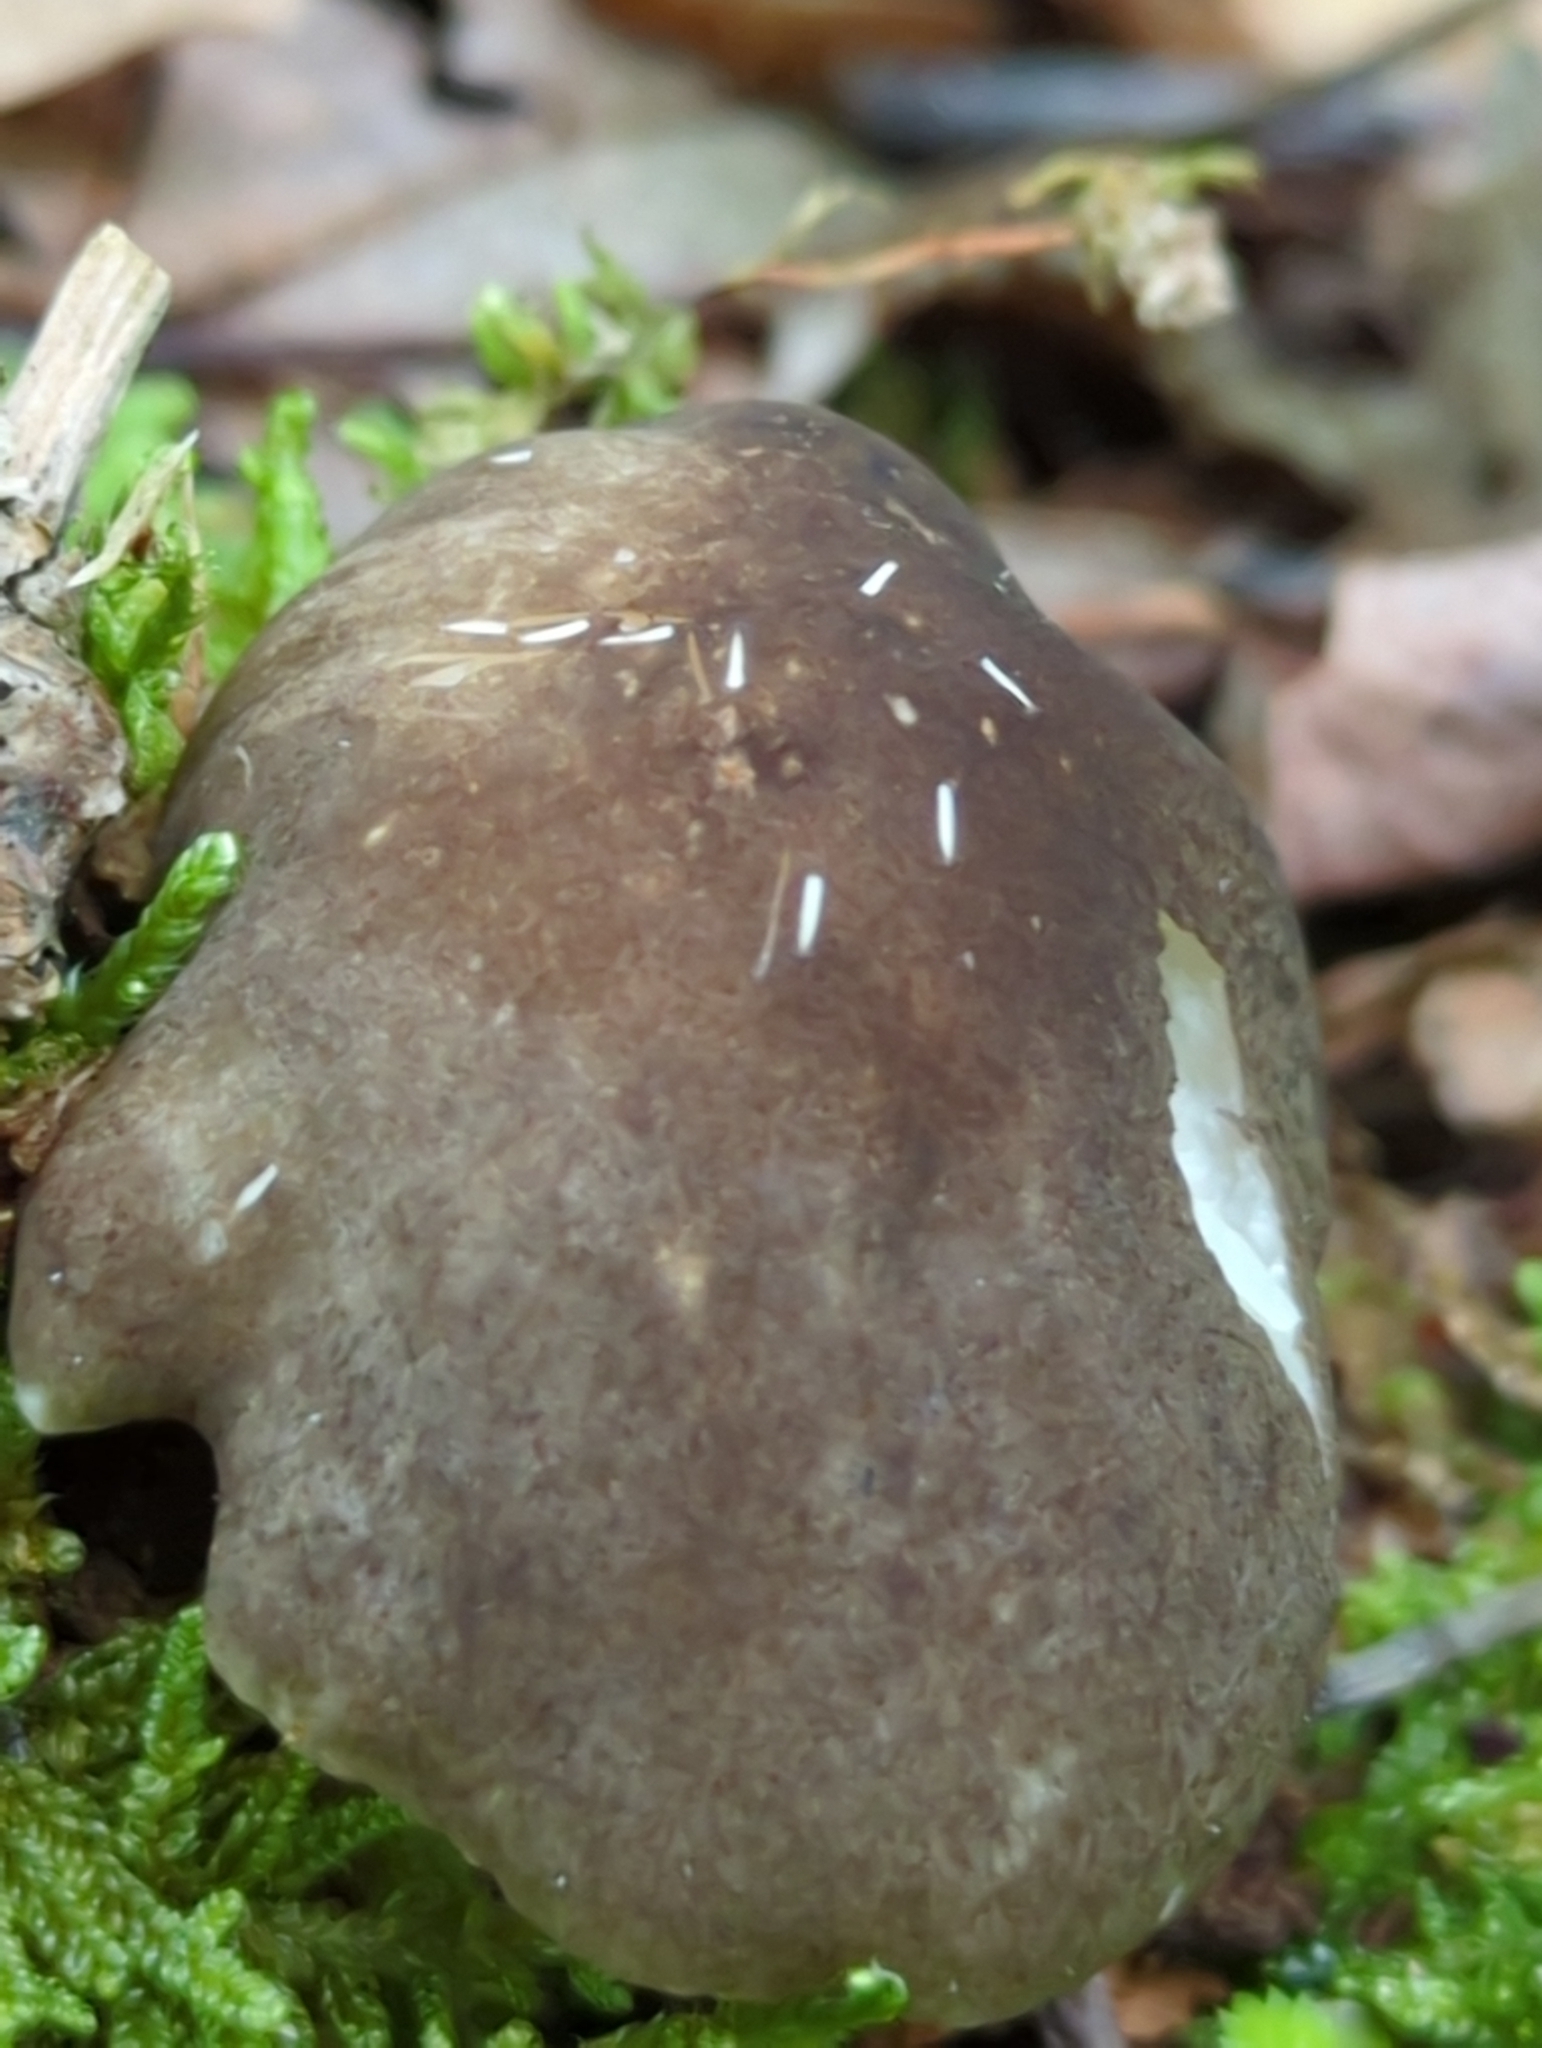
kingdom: Fungi
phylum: Basidiomycota
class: Agaricomycetes
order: Agaricales
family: Tricholomataceae
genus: Megacollybia
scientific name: Megacollybia rodmanii
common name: Eastern american platterful mushroom
